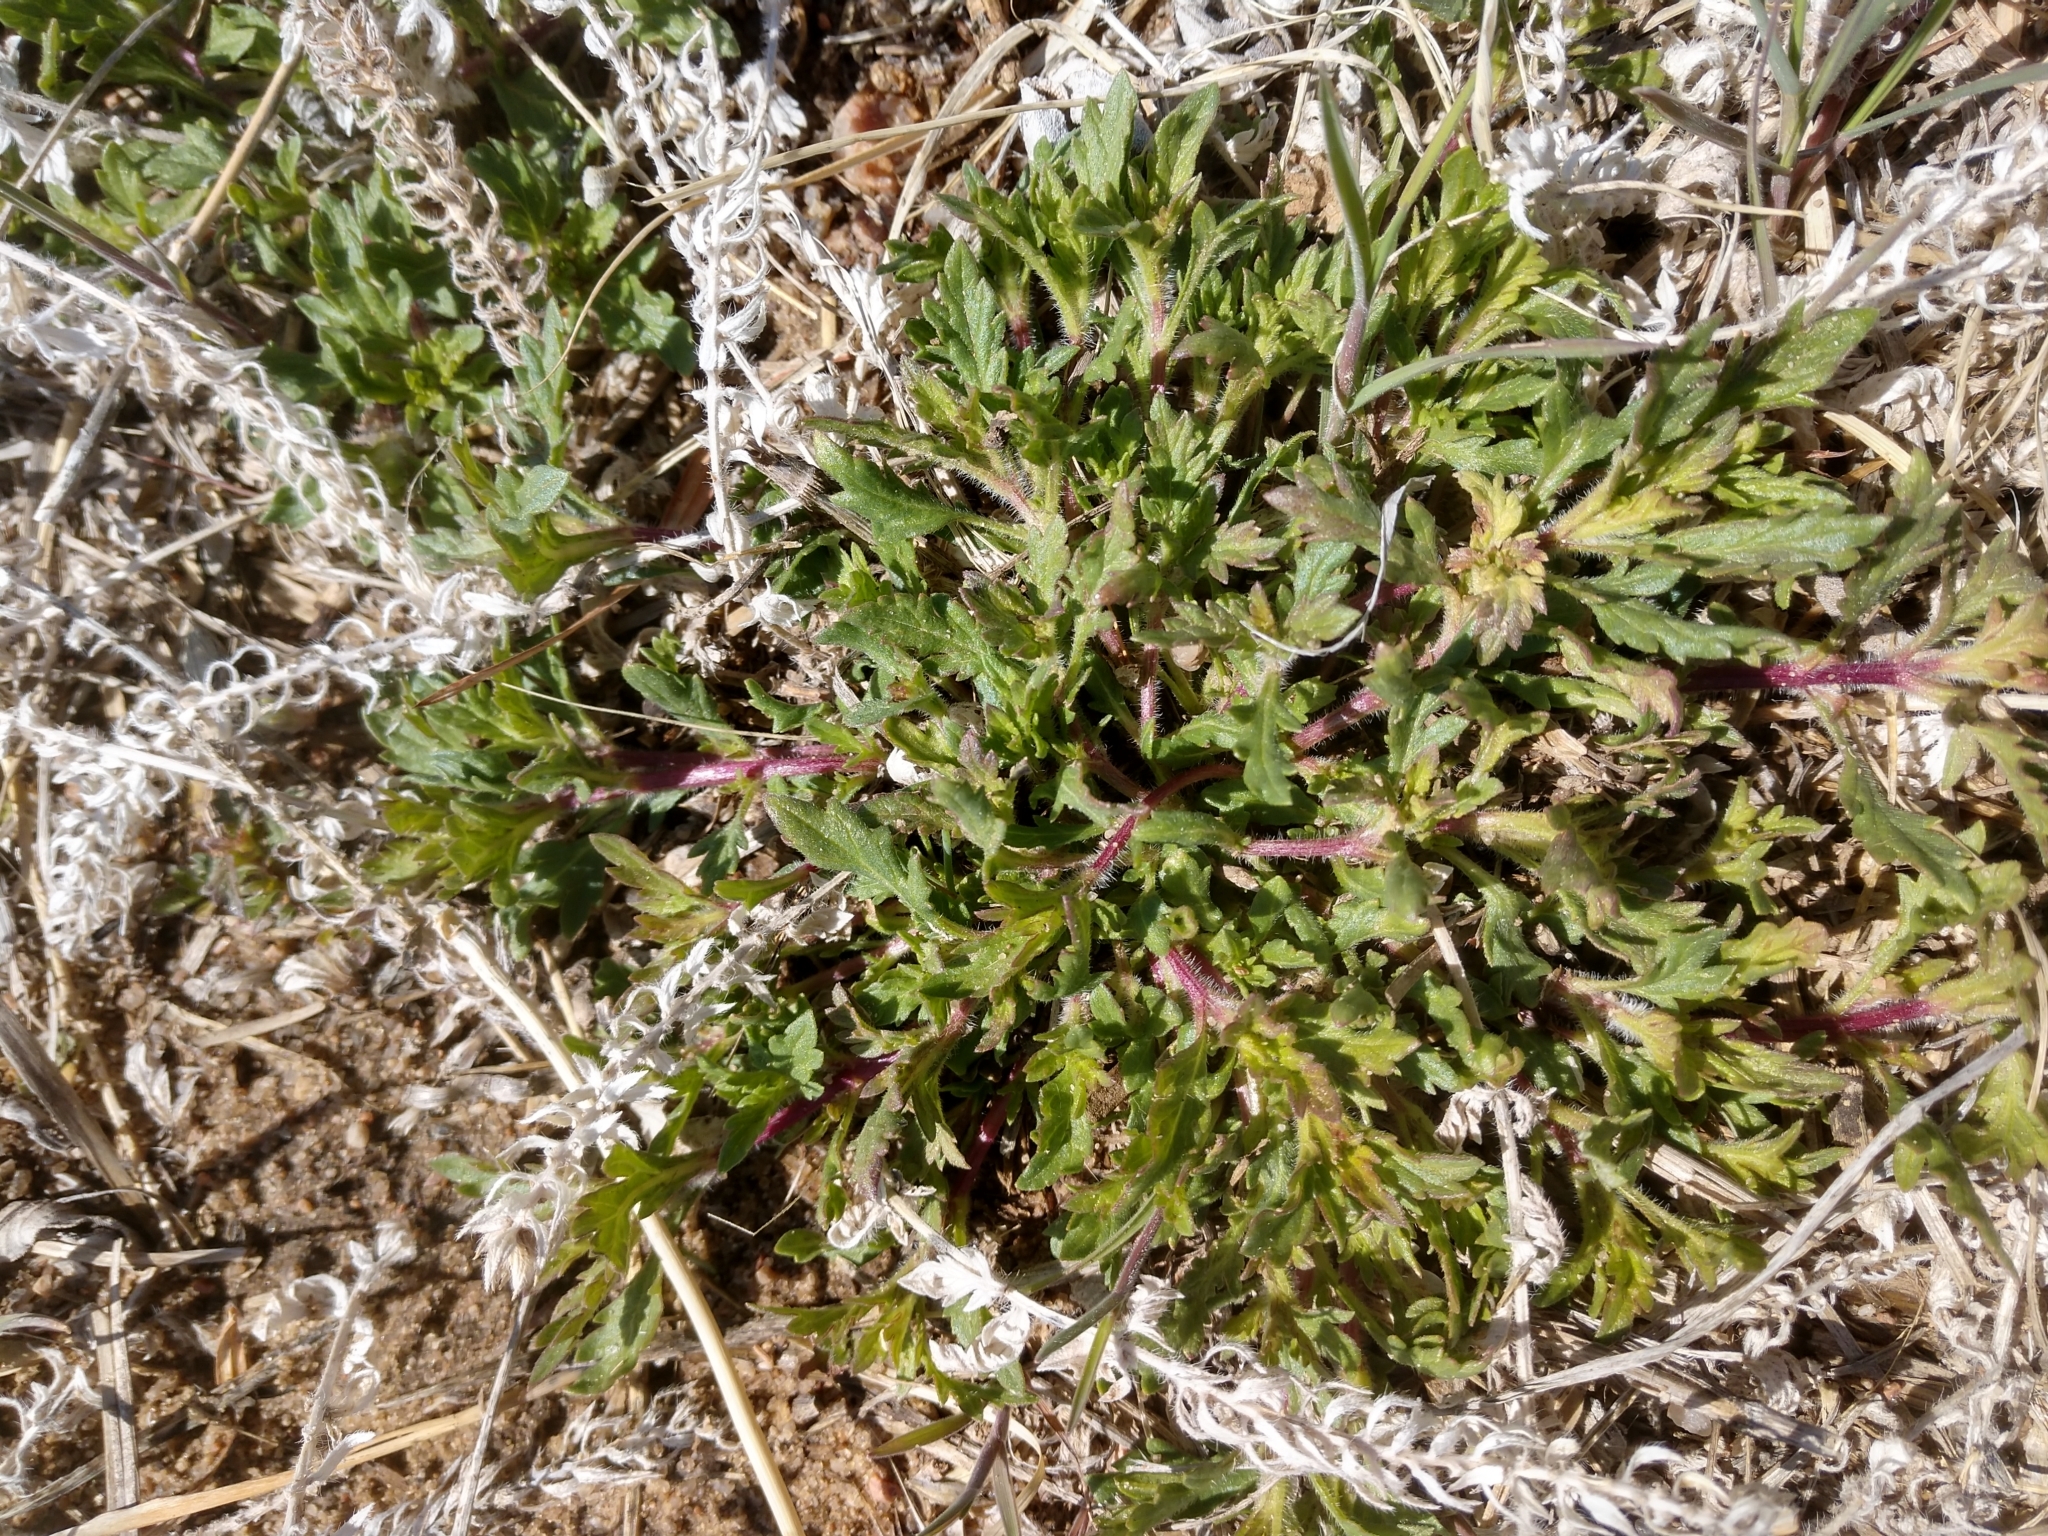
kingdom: Plantae
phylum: Tracheophyta
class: Magnoliopsida
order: Lamiales
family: Verbenaceae
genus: Verbena
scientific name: Verbena bracteata
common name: Bracted vervain
